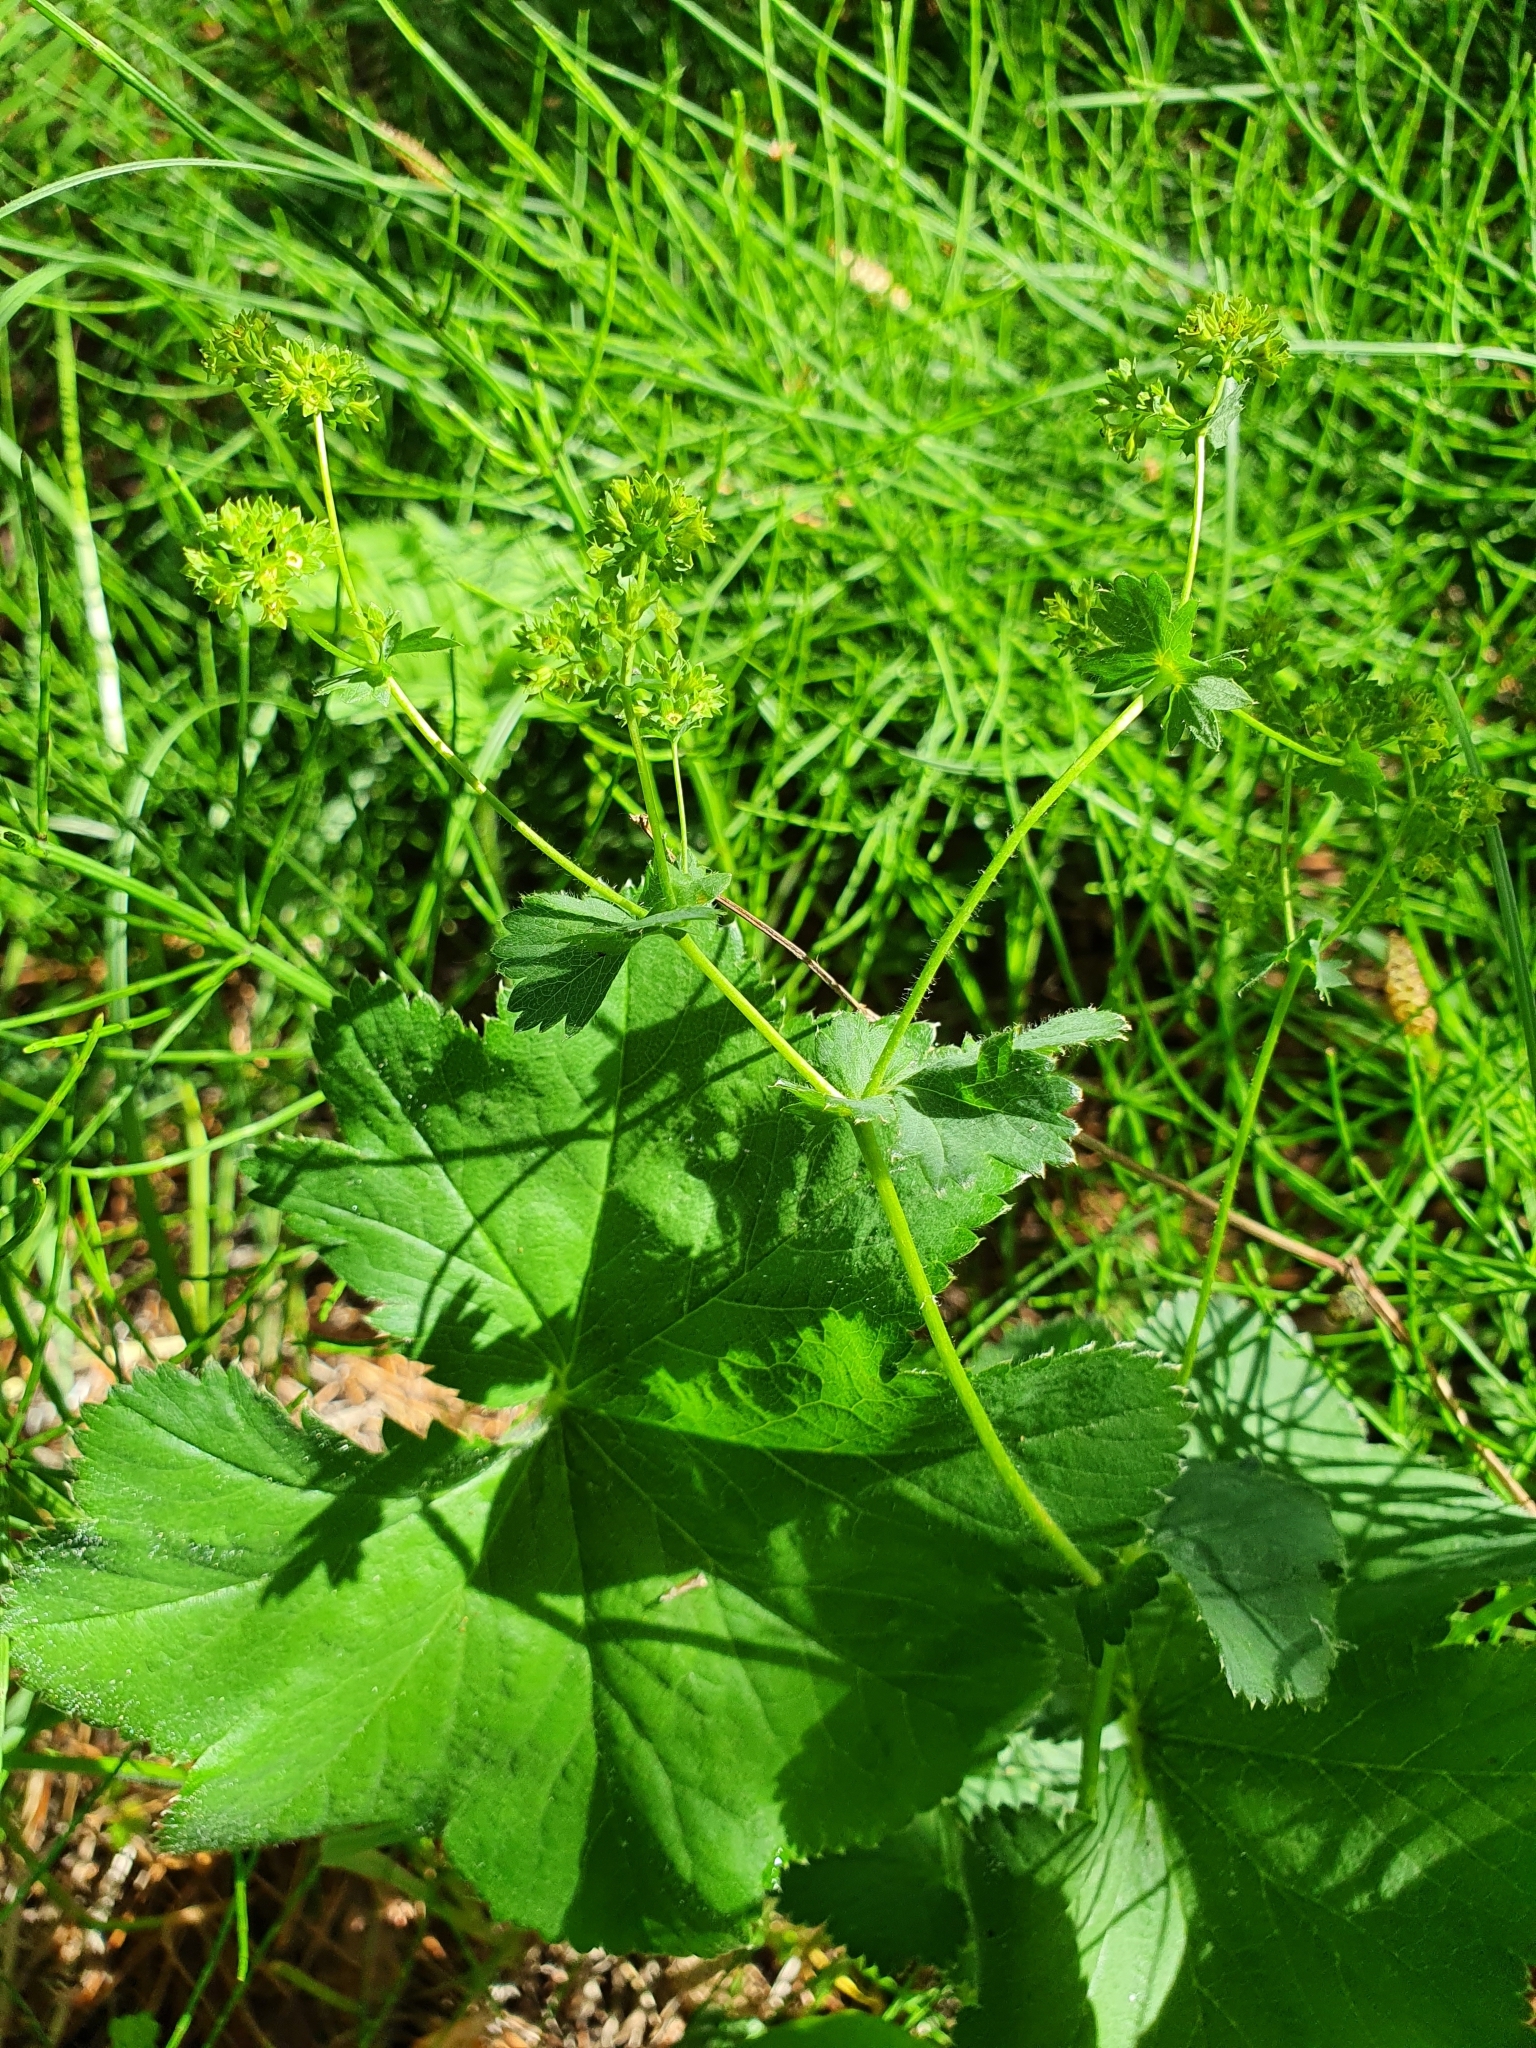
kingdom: Plantae
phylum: Tracheophyta
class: Magnoliopsida
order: Rosales
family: Rosaceae
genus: Alchemilla
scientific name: Alchemilla cymatophylla
